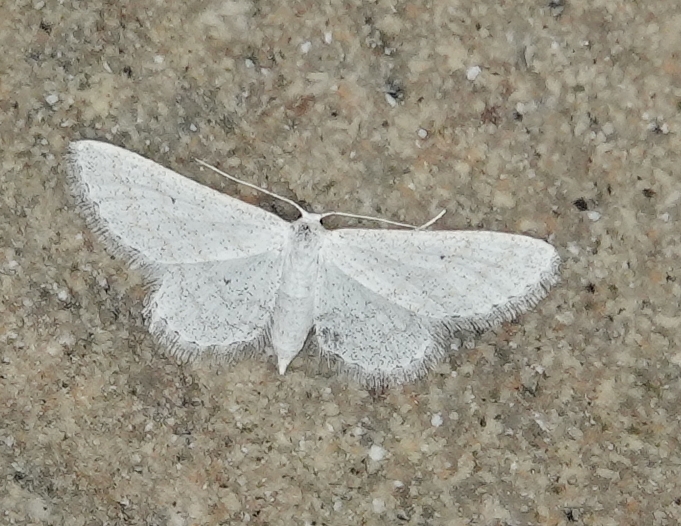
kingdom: Animalia
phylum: Arthropoda
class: Insecta
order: Lepidoptera
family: Geometridae
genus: Lobocleta
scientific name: Lobocleta peralbata
